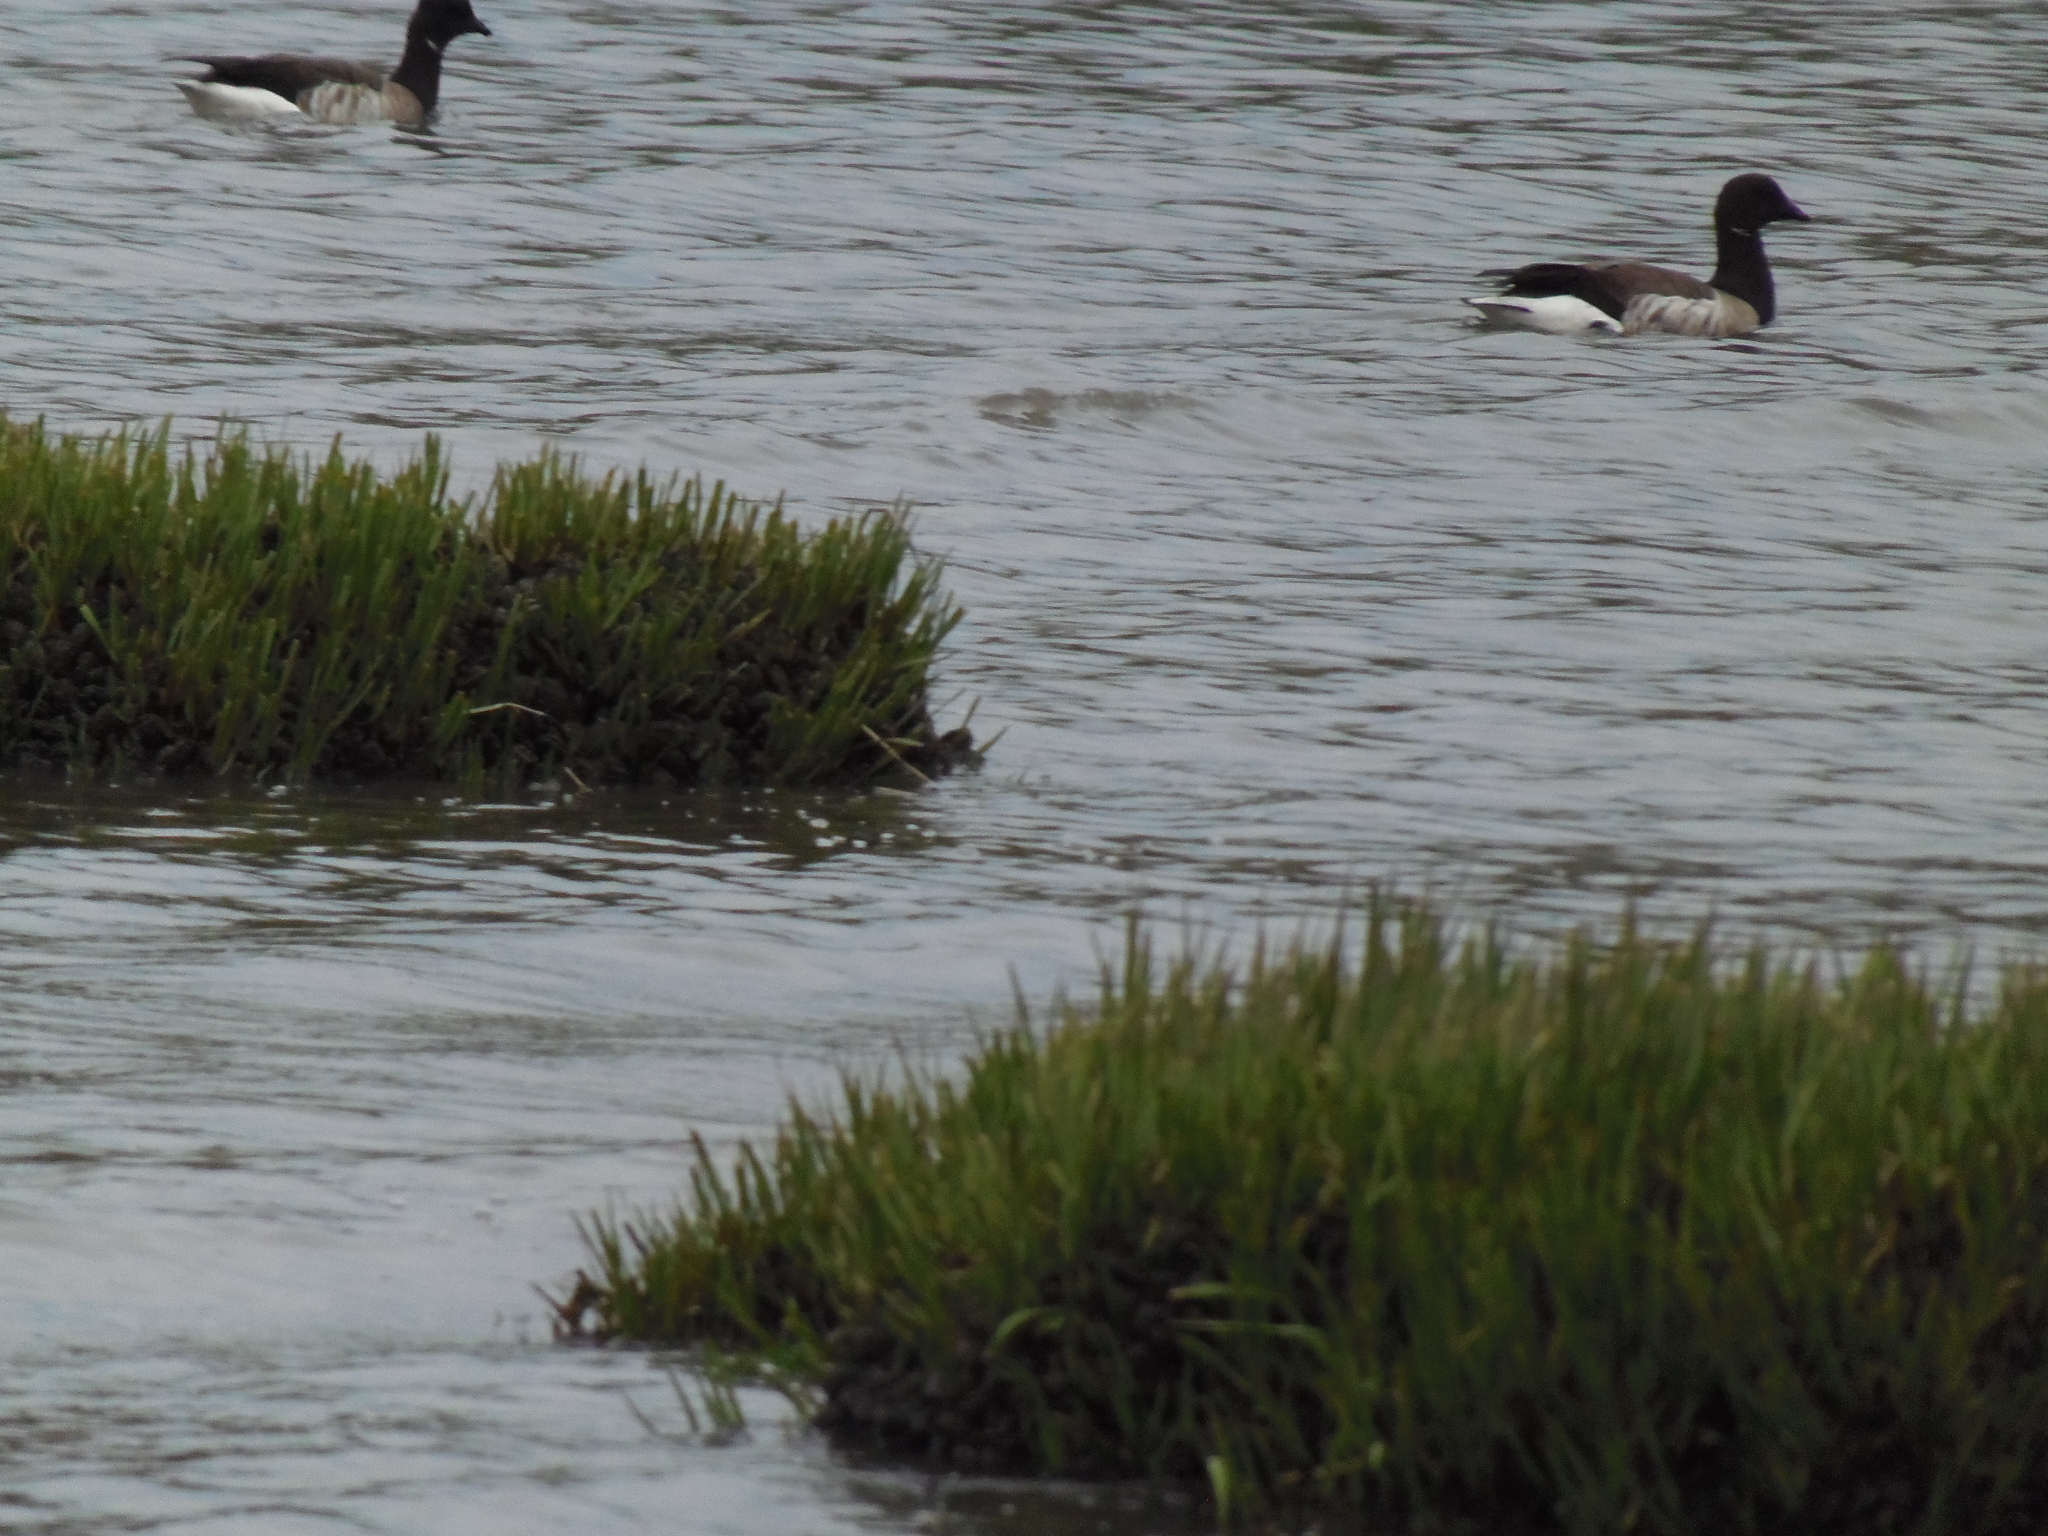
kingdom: Animalia
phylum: Chordata
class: Aves
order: Anseriformes
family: Anatidae
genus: Branta
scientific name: Branta bernicla
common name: Brant goose
